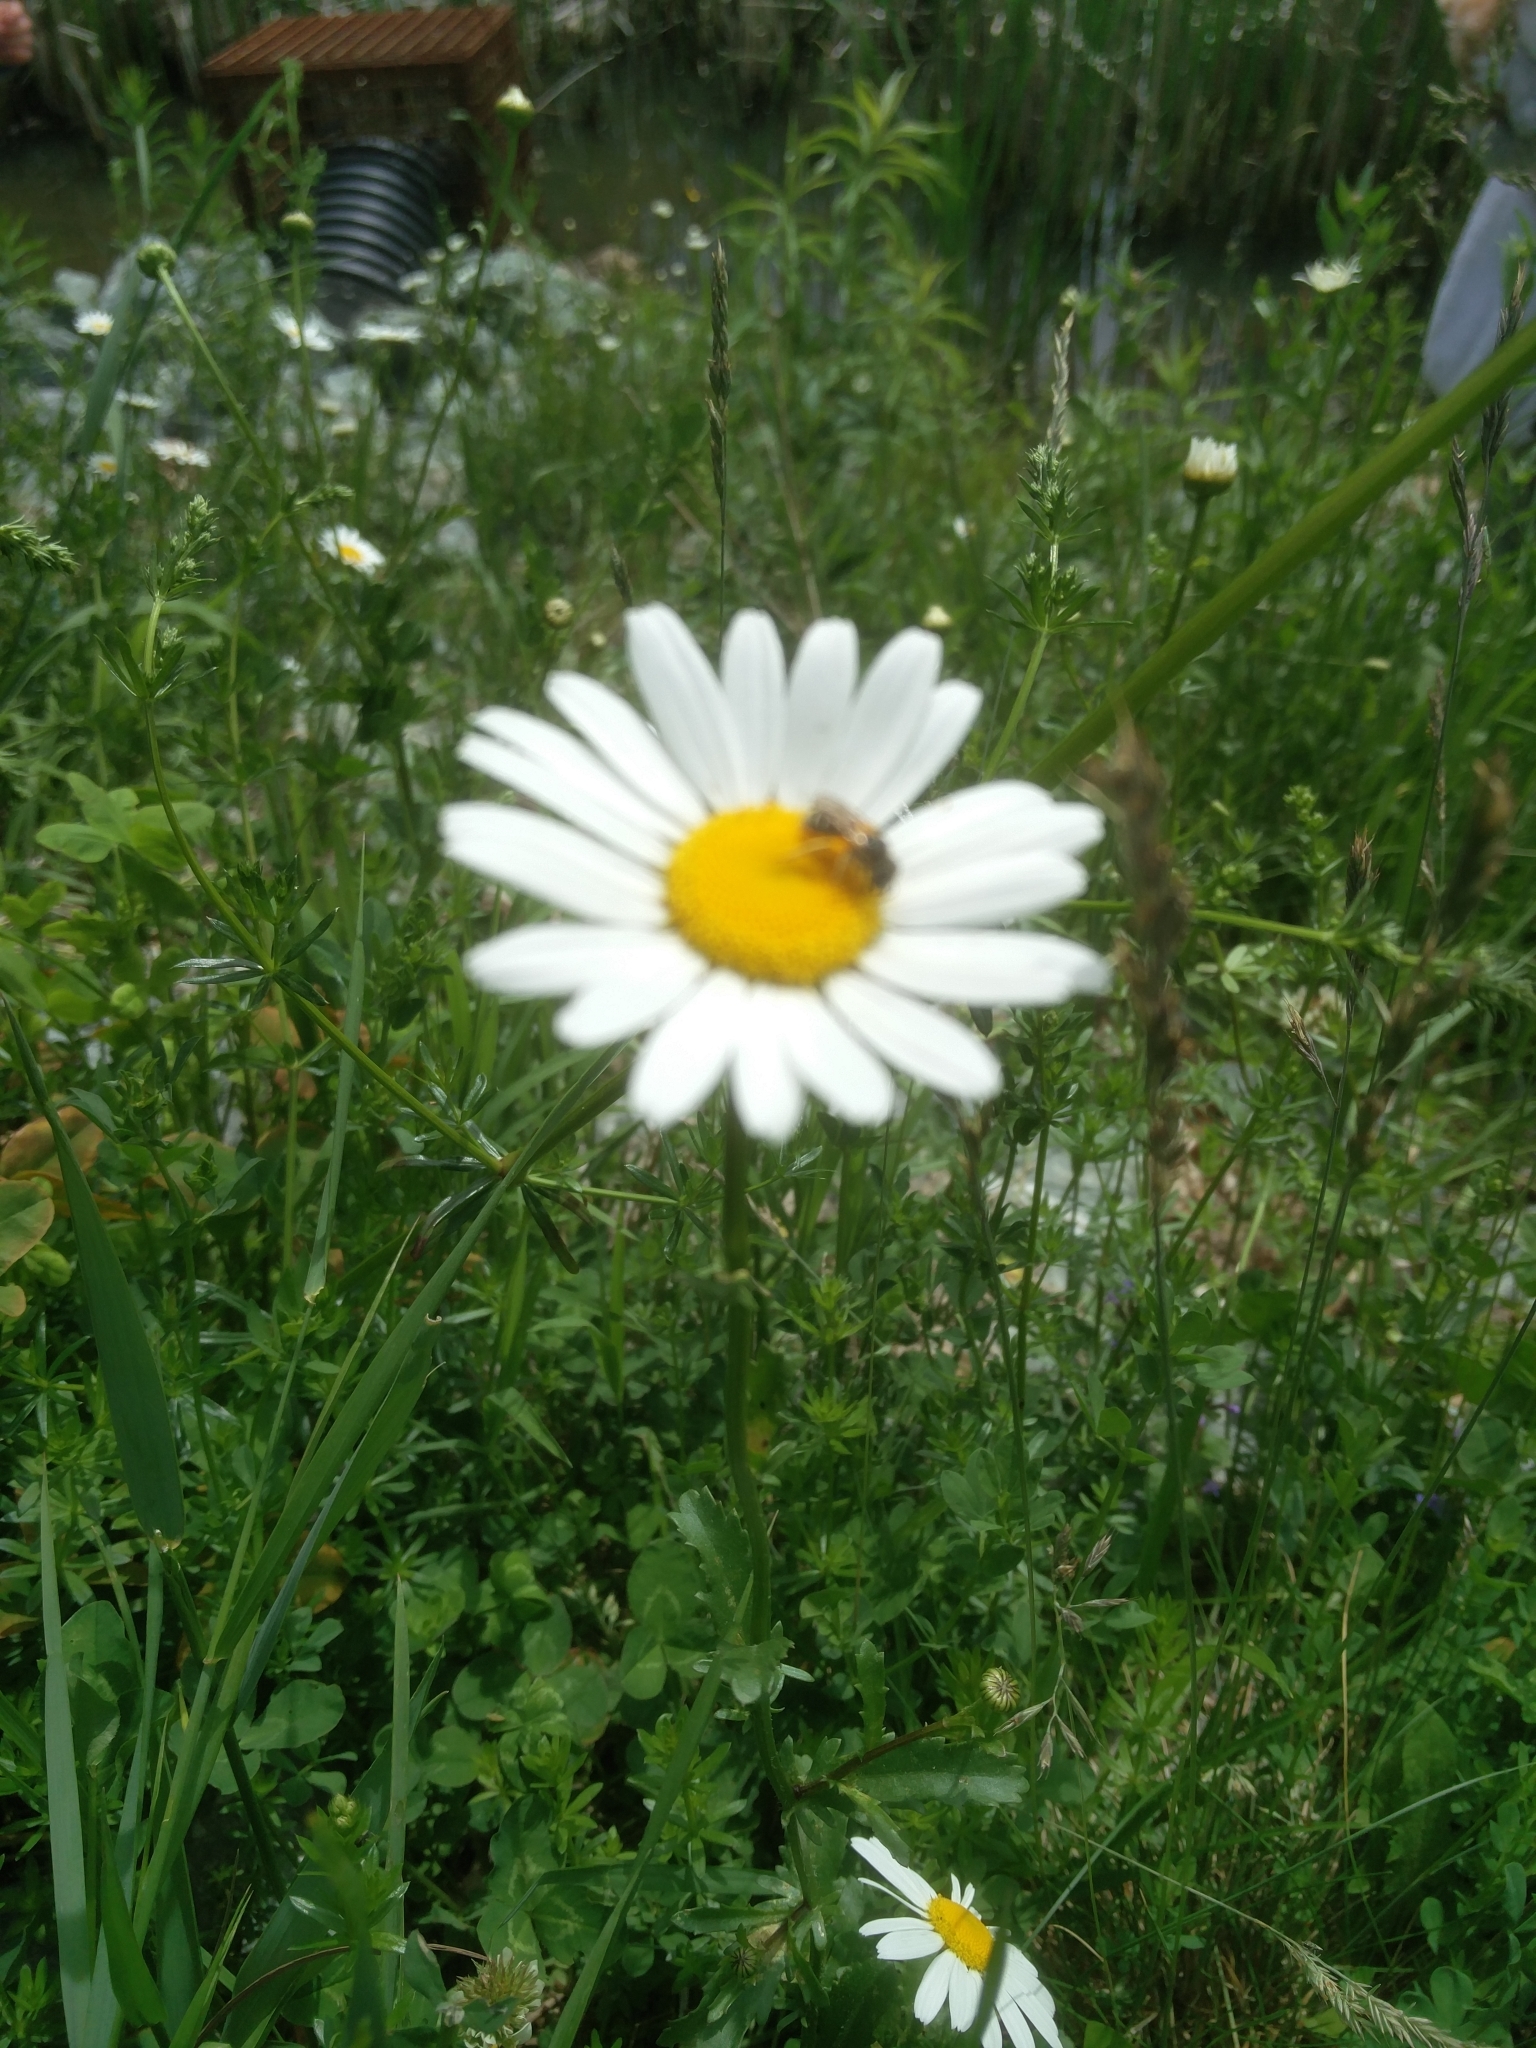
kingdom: Plantae
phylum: Tracheophyta
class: Magnoliopsida
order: Asterales
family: Asteraceae
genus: Leucanthemum
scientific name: Leucanthemum vulgare
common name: Oxeye daisy
